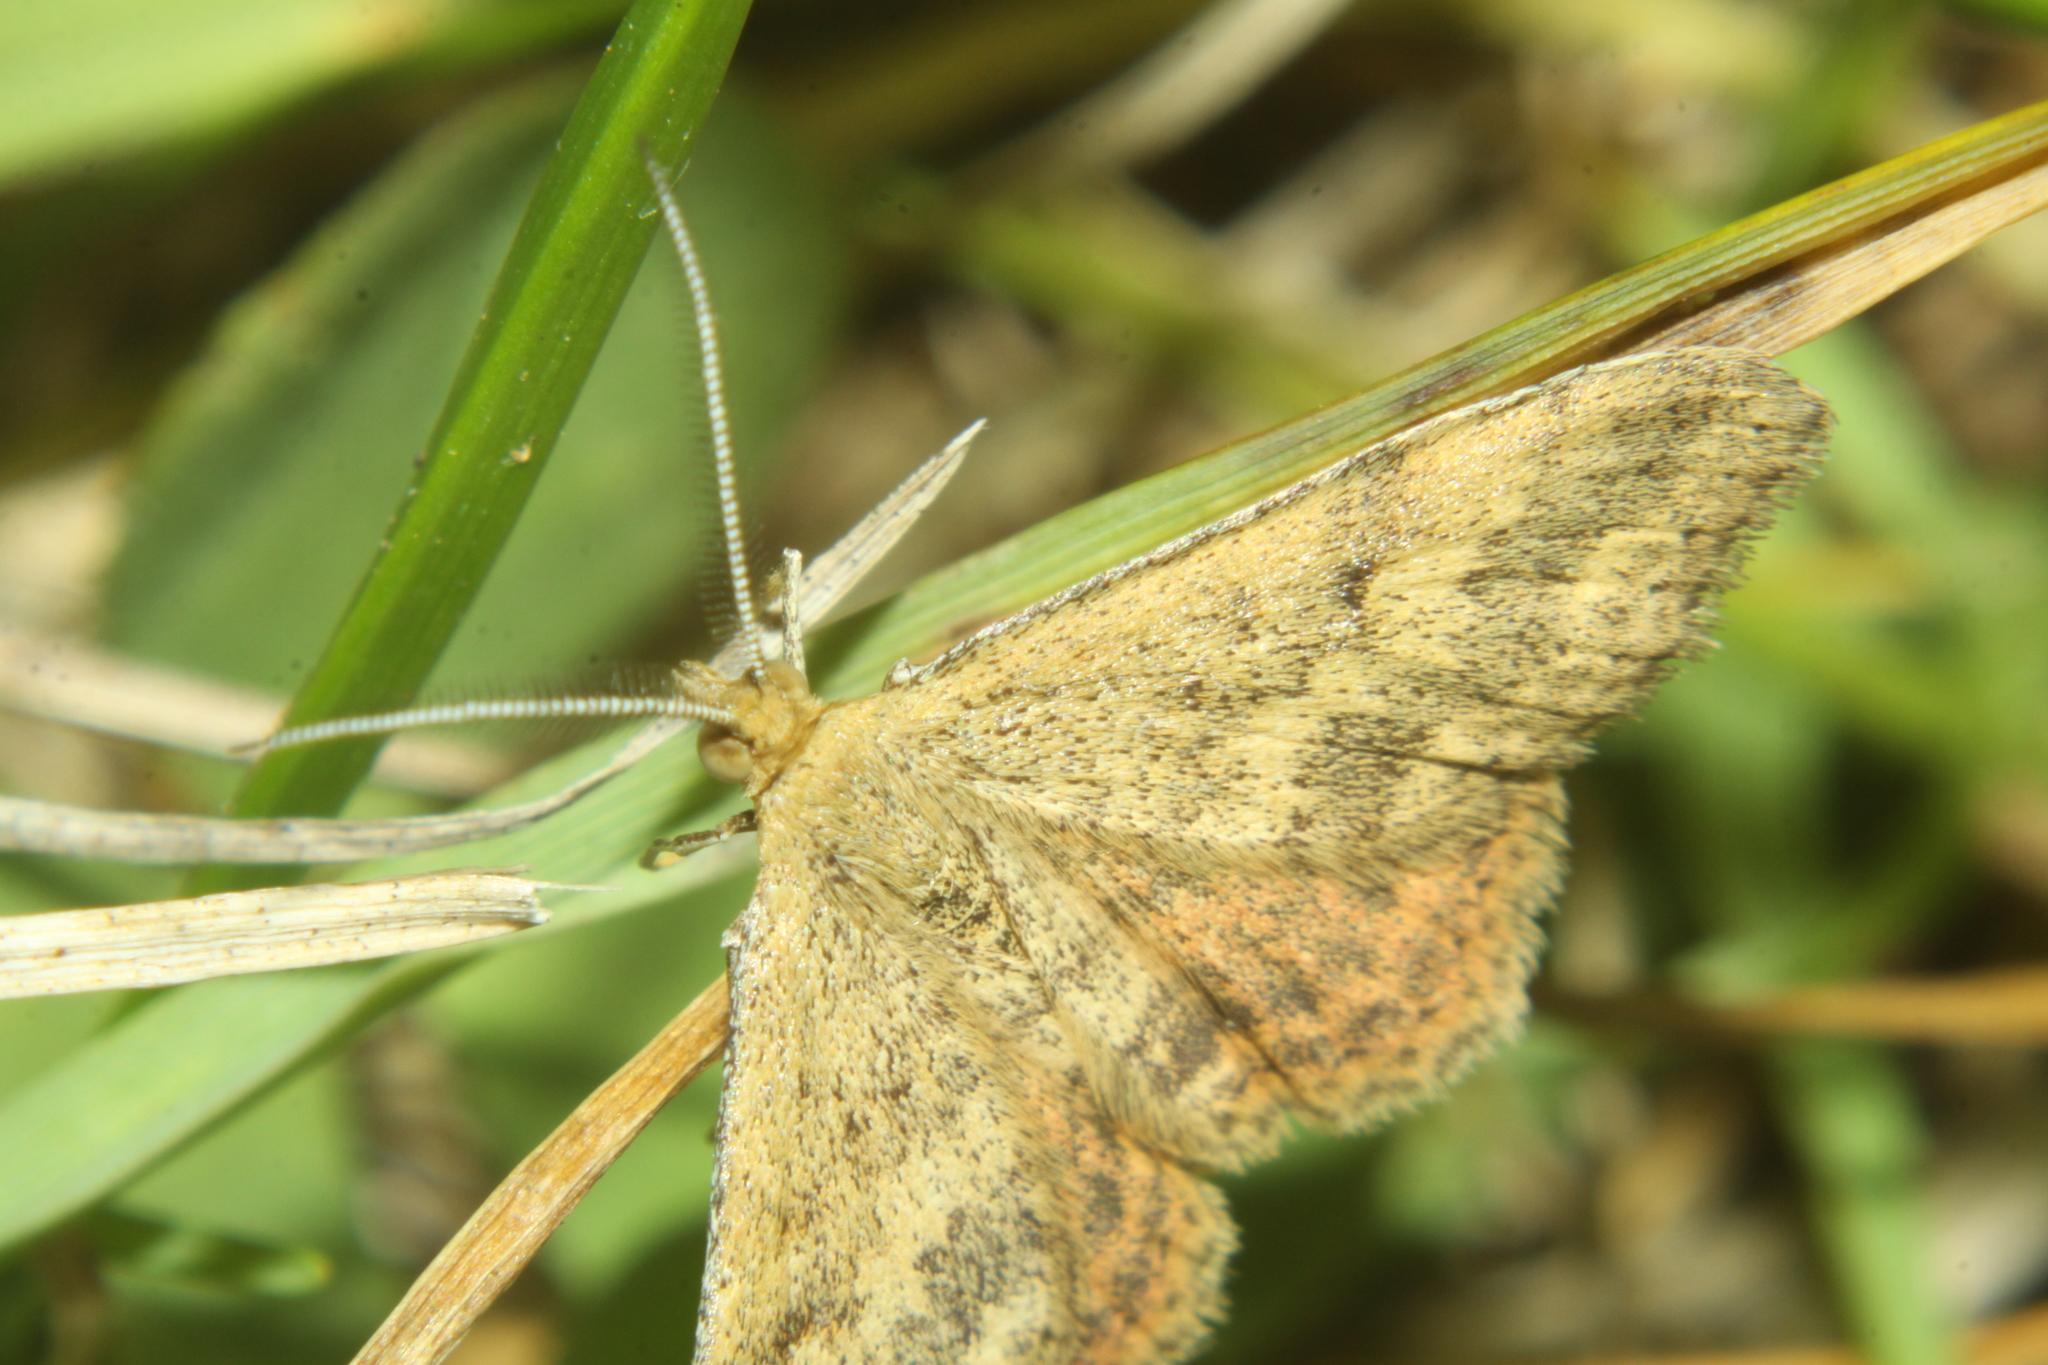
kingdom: Animalia
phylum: Arthropoda
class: Insecta
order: Lepidoptera
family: Geometridae
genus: Scopula
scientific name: Scopula rubraria
